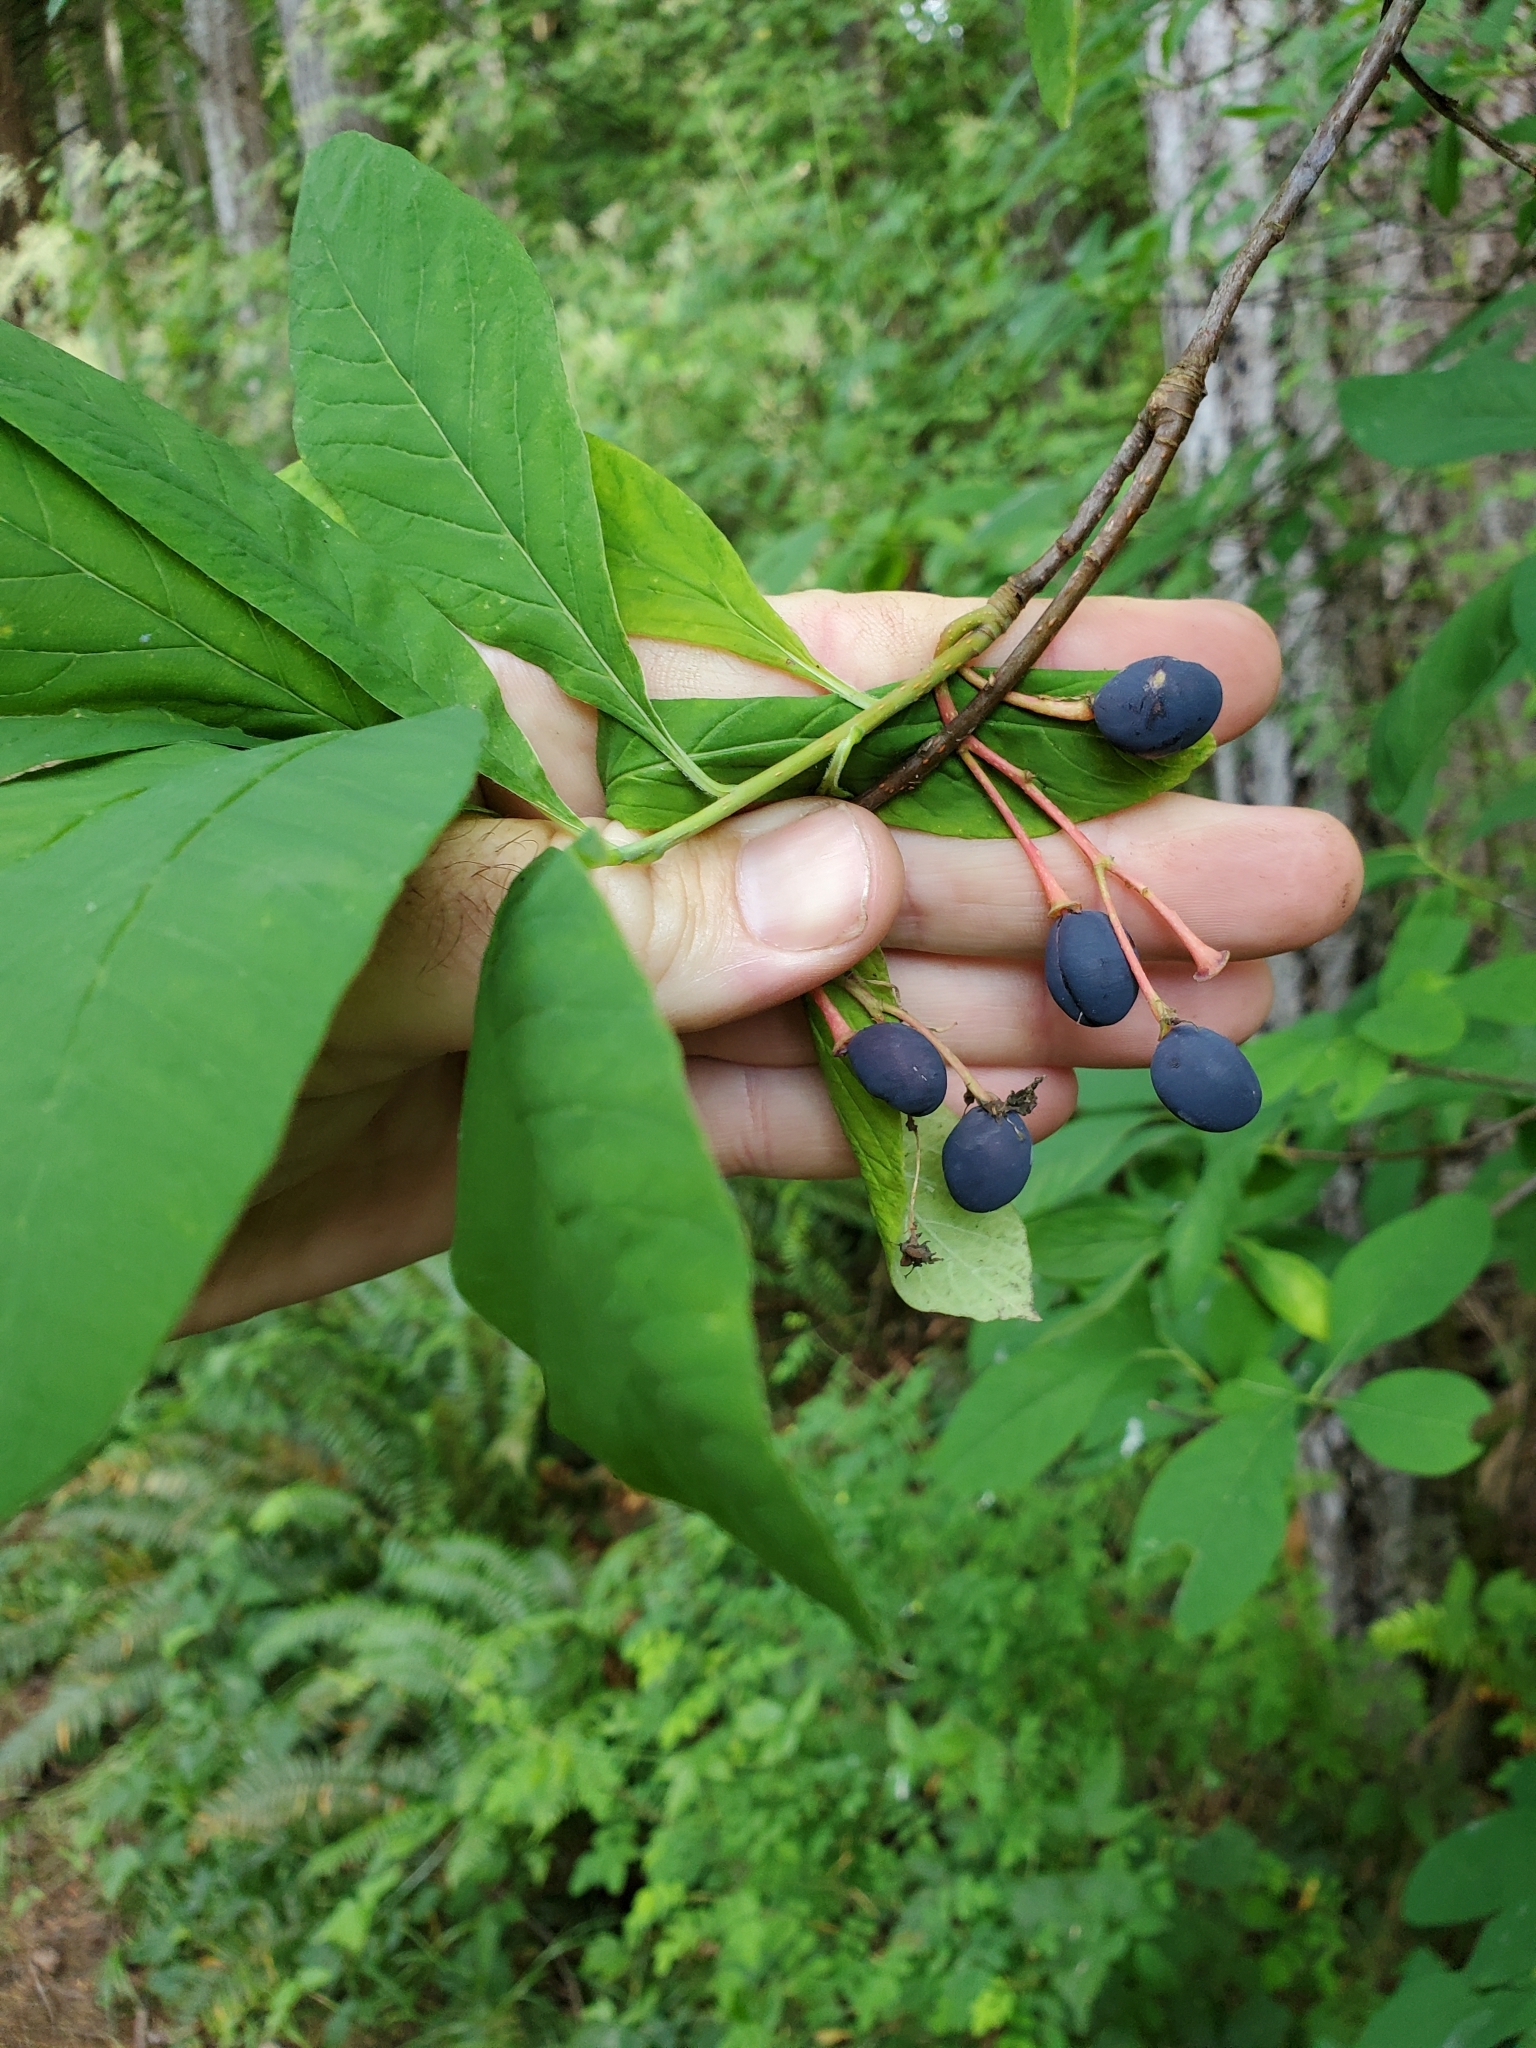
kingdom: Plantae
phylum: Tracheophyta
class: Magnoliopsida
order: Rosales
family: Rosaceae
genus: Oemleria
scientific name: Oemleria cerasiformis
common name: Osoberry
